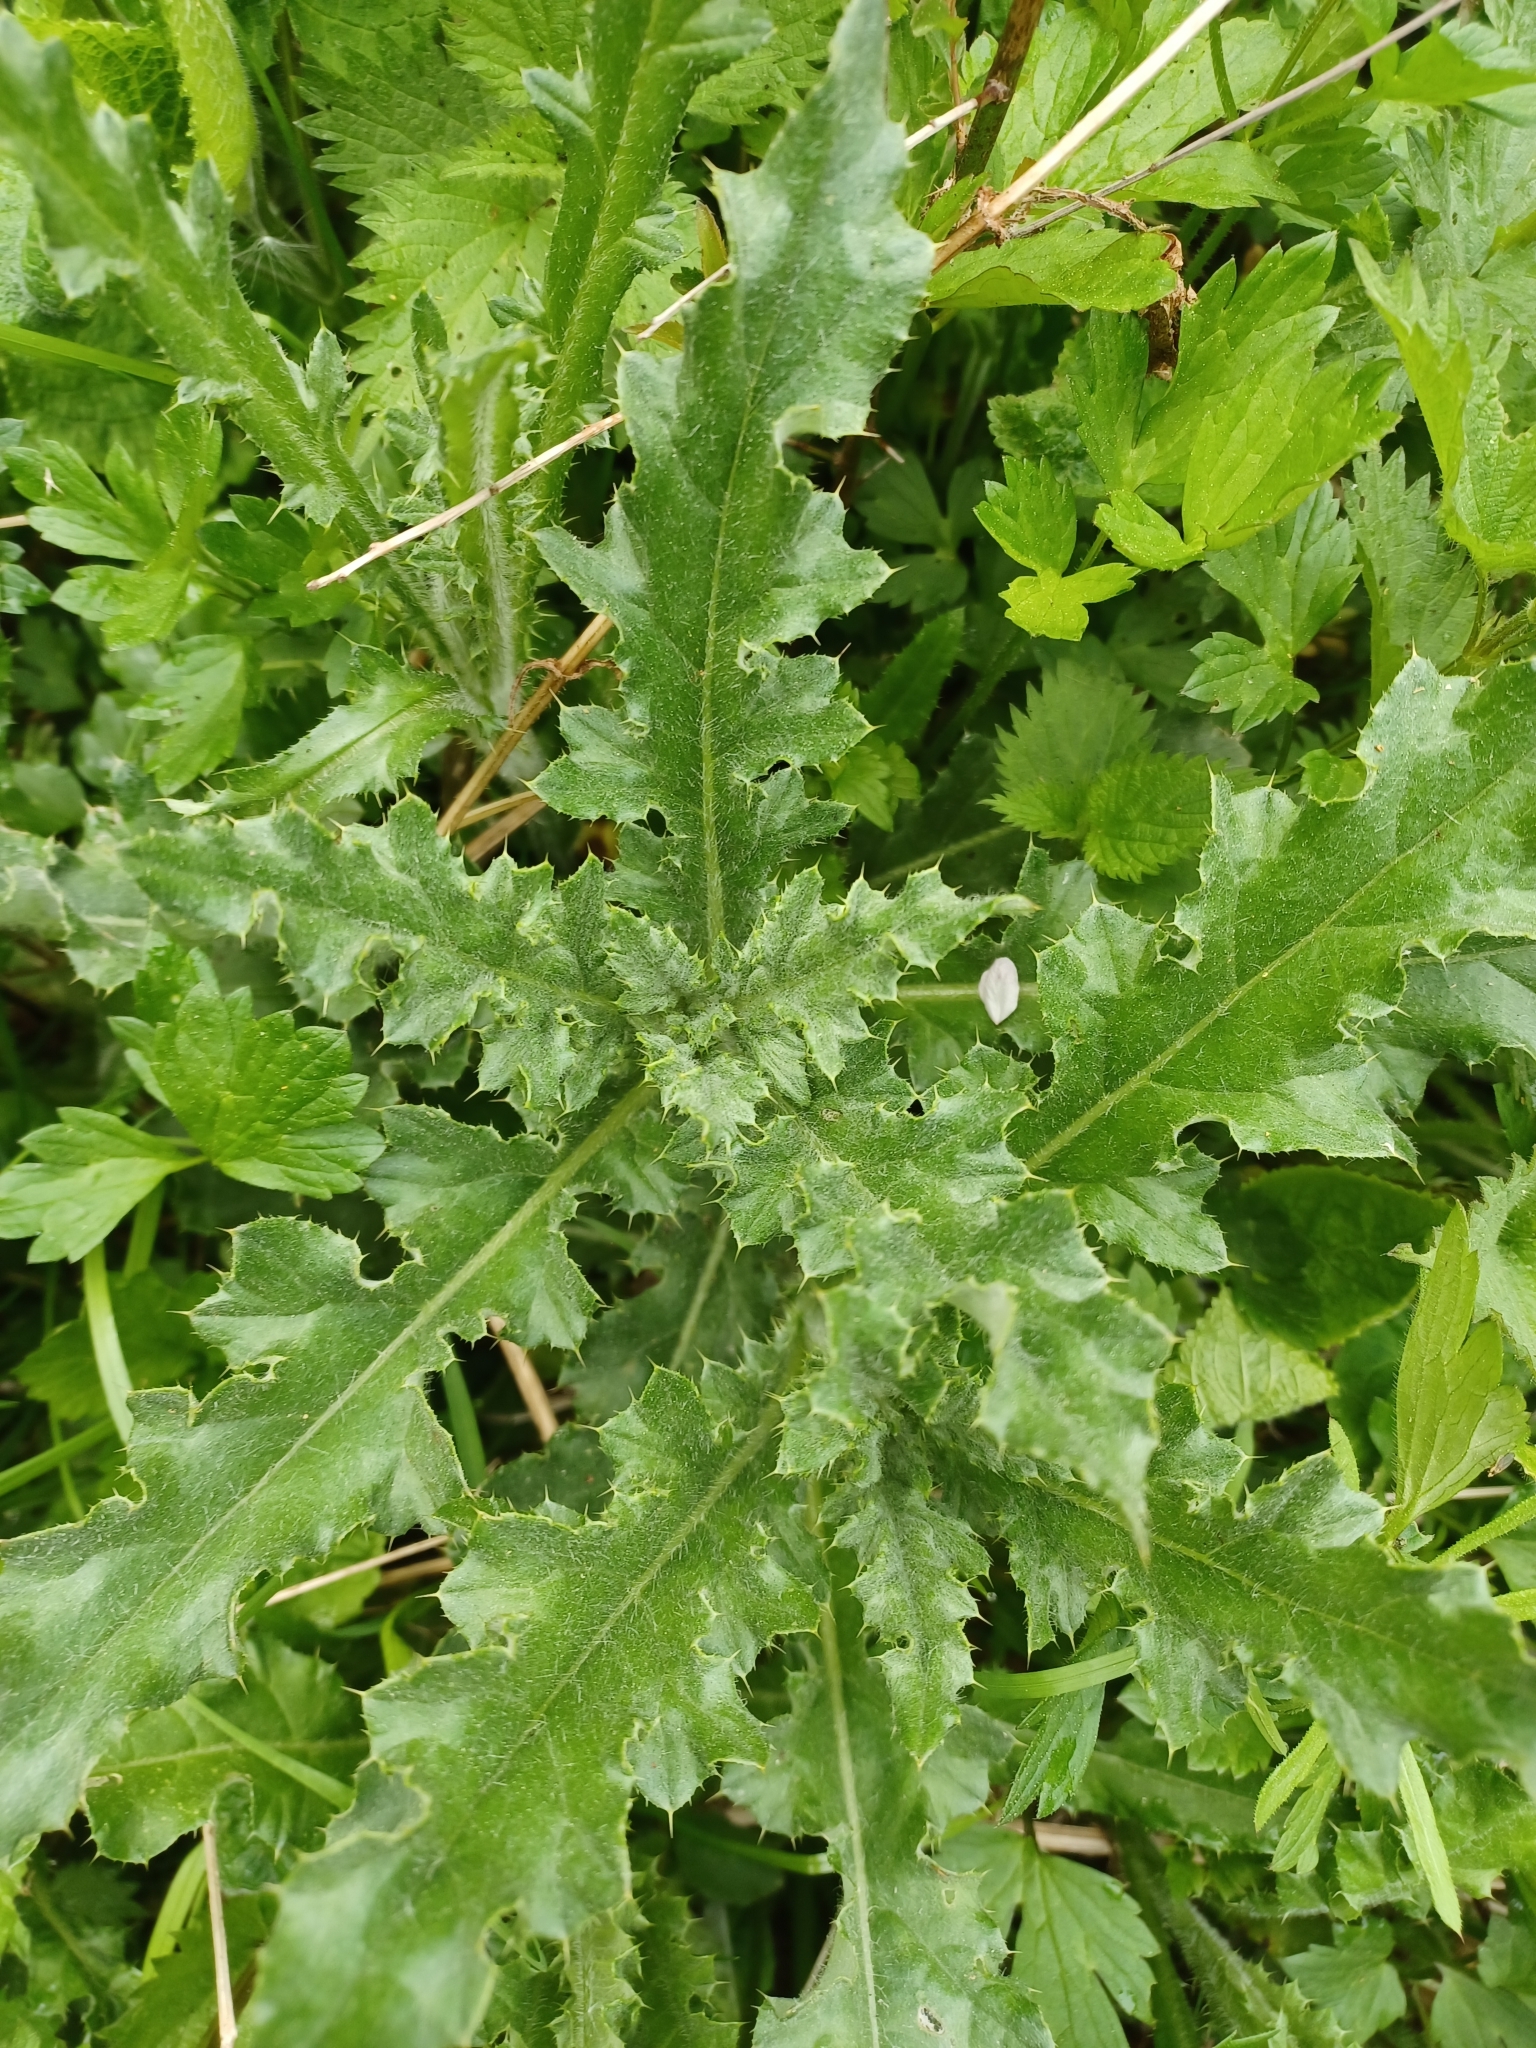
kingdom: Plantae
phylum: Tracheophyta
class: Magnoliopsida
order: Asterales
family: Asteraceae
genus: Cirsium
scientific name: Cirsium arvense
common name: Creeping thistle
